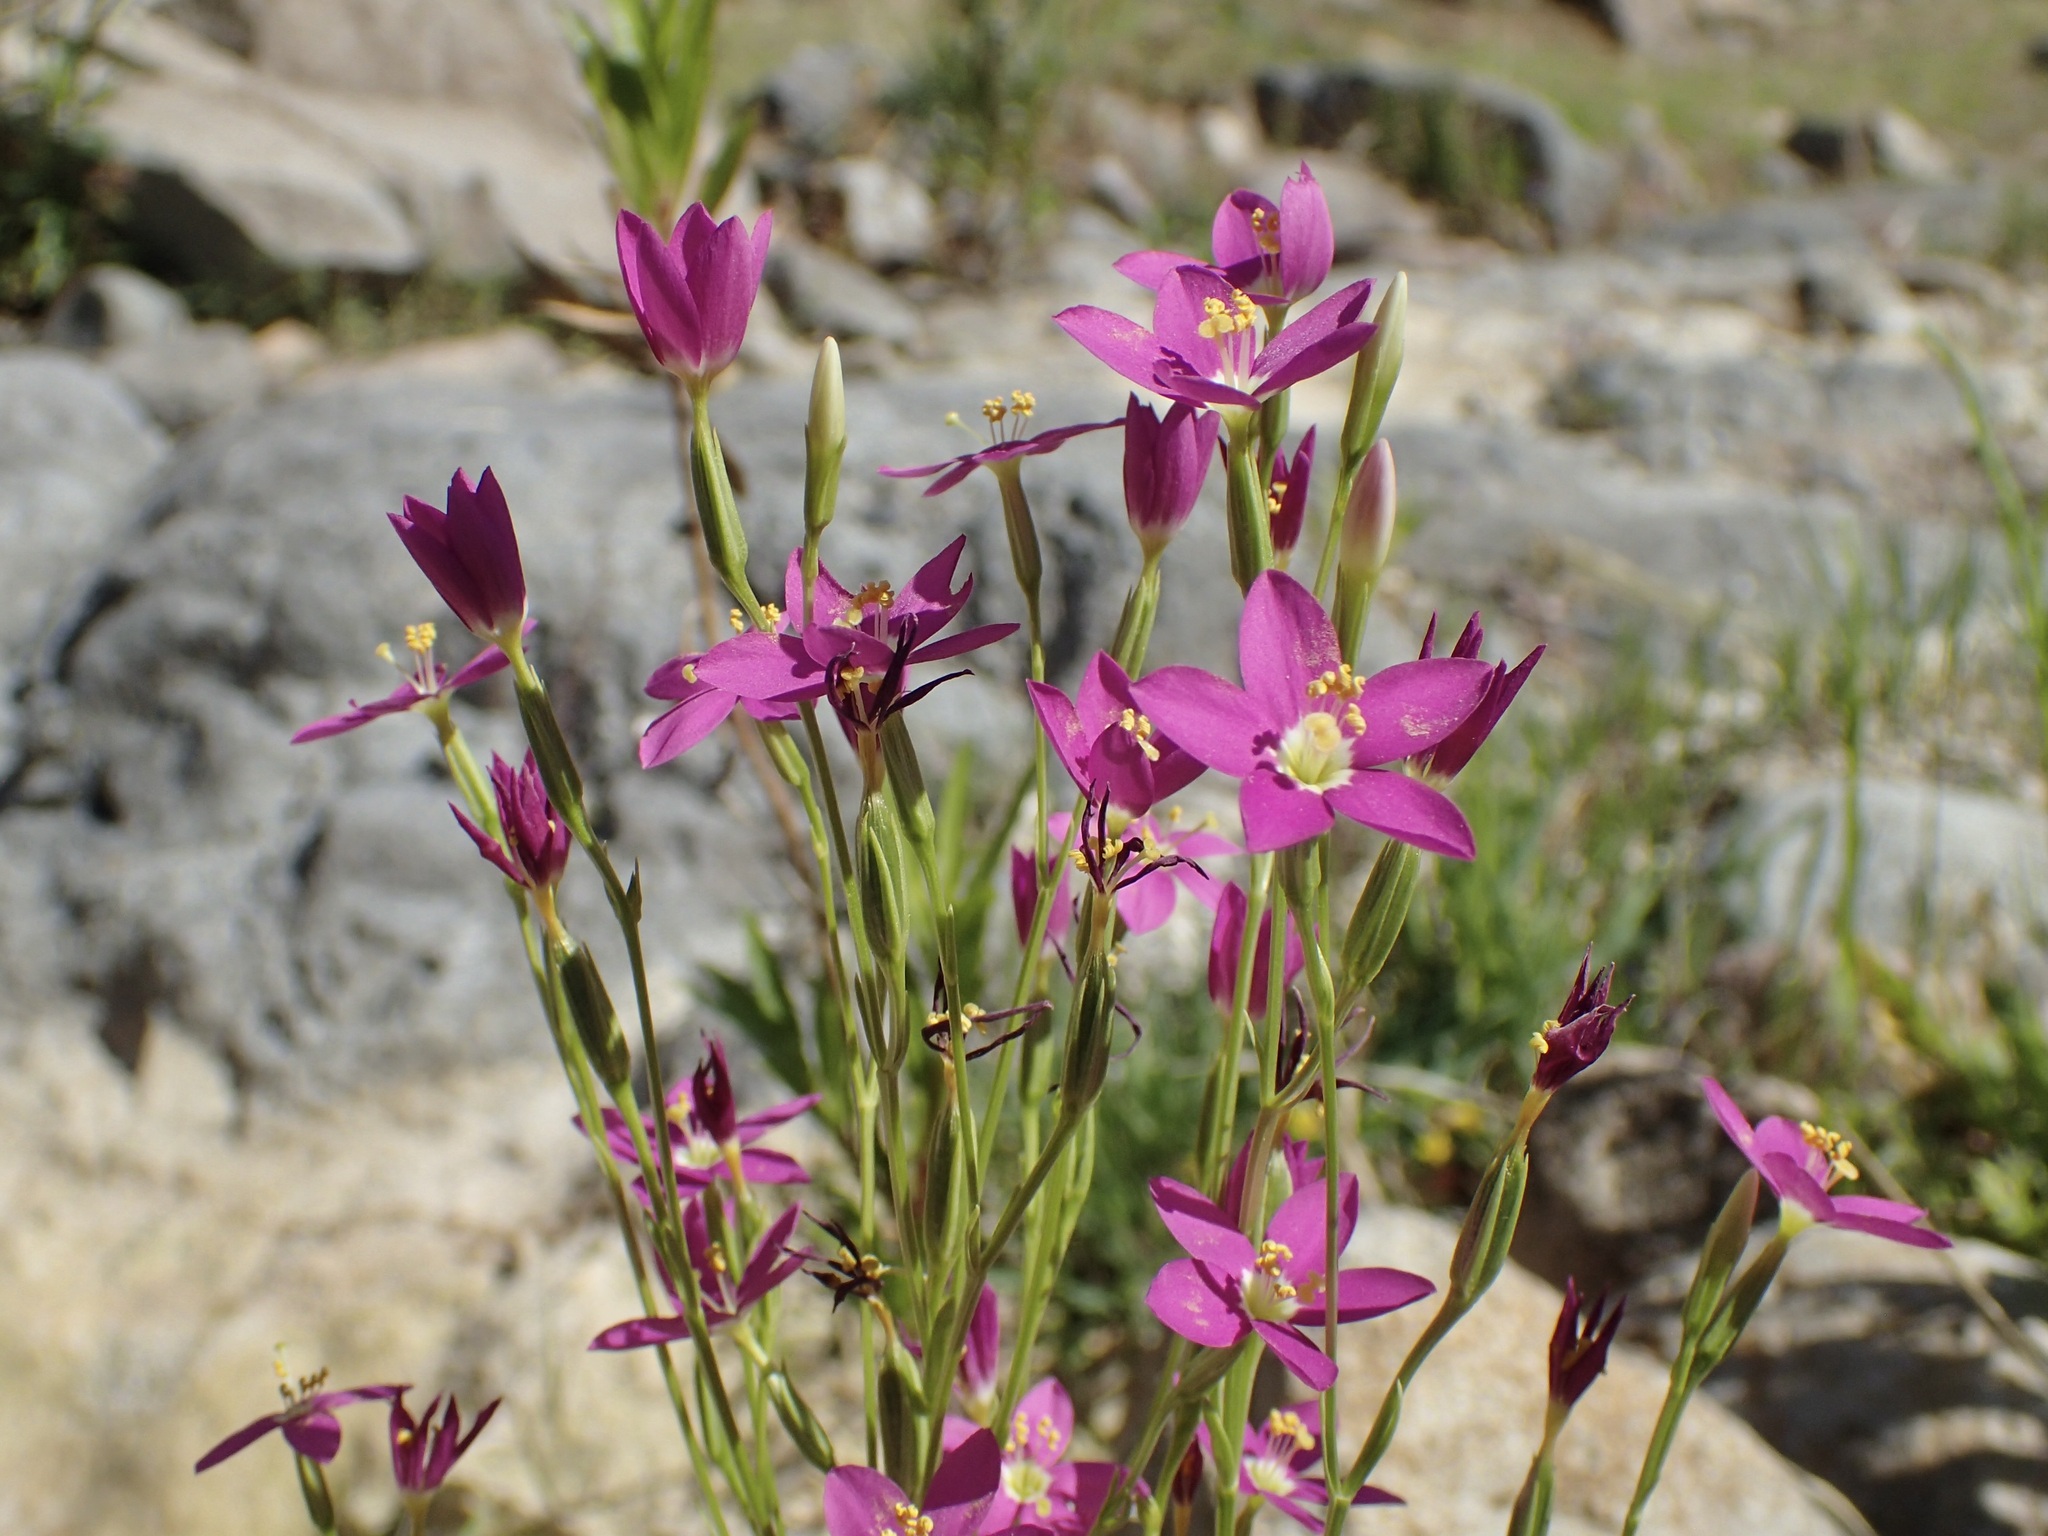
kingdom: Plantae
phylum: Tracheophyta
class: Magnoliopsida
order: Gentianales
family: Gentianaceae
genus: Zeltnera
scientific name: Zeltnera arizonica
